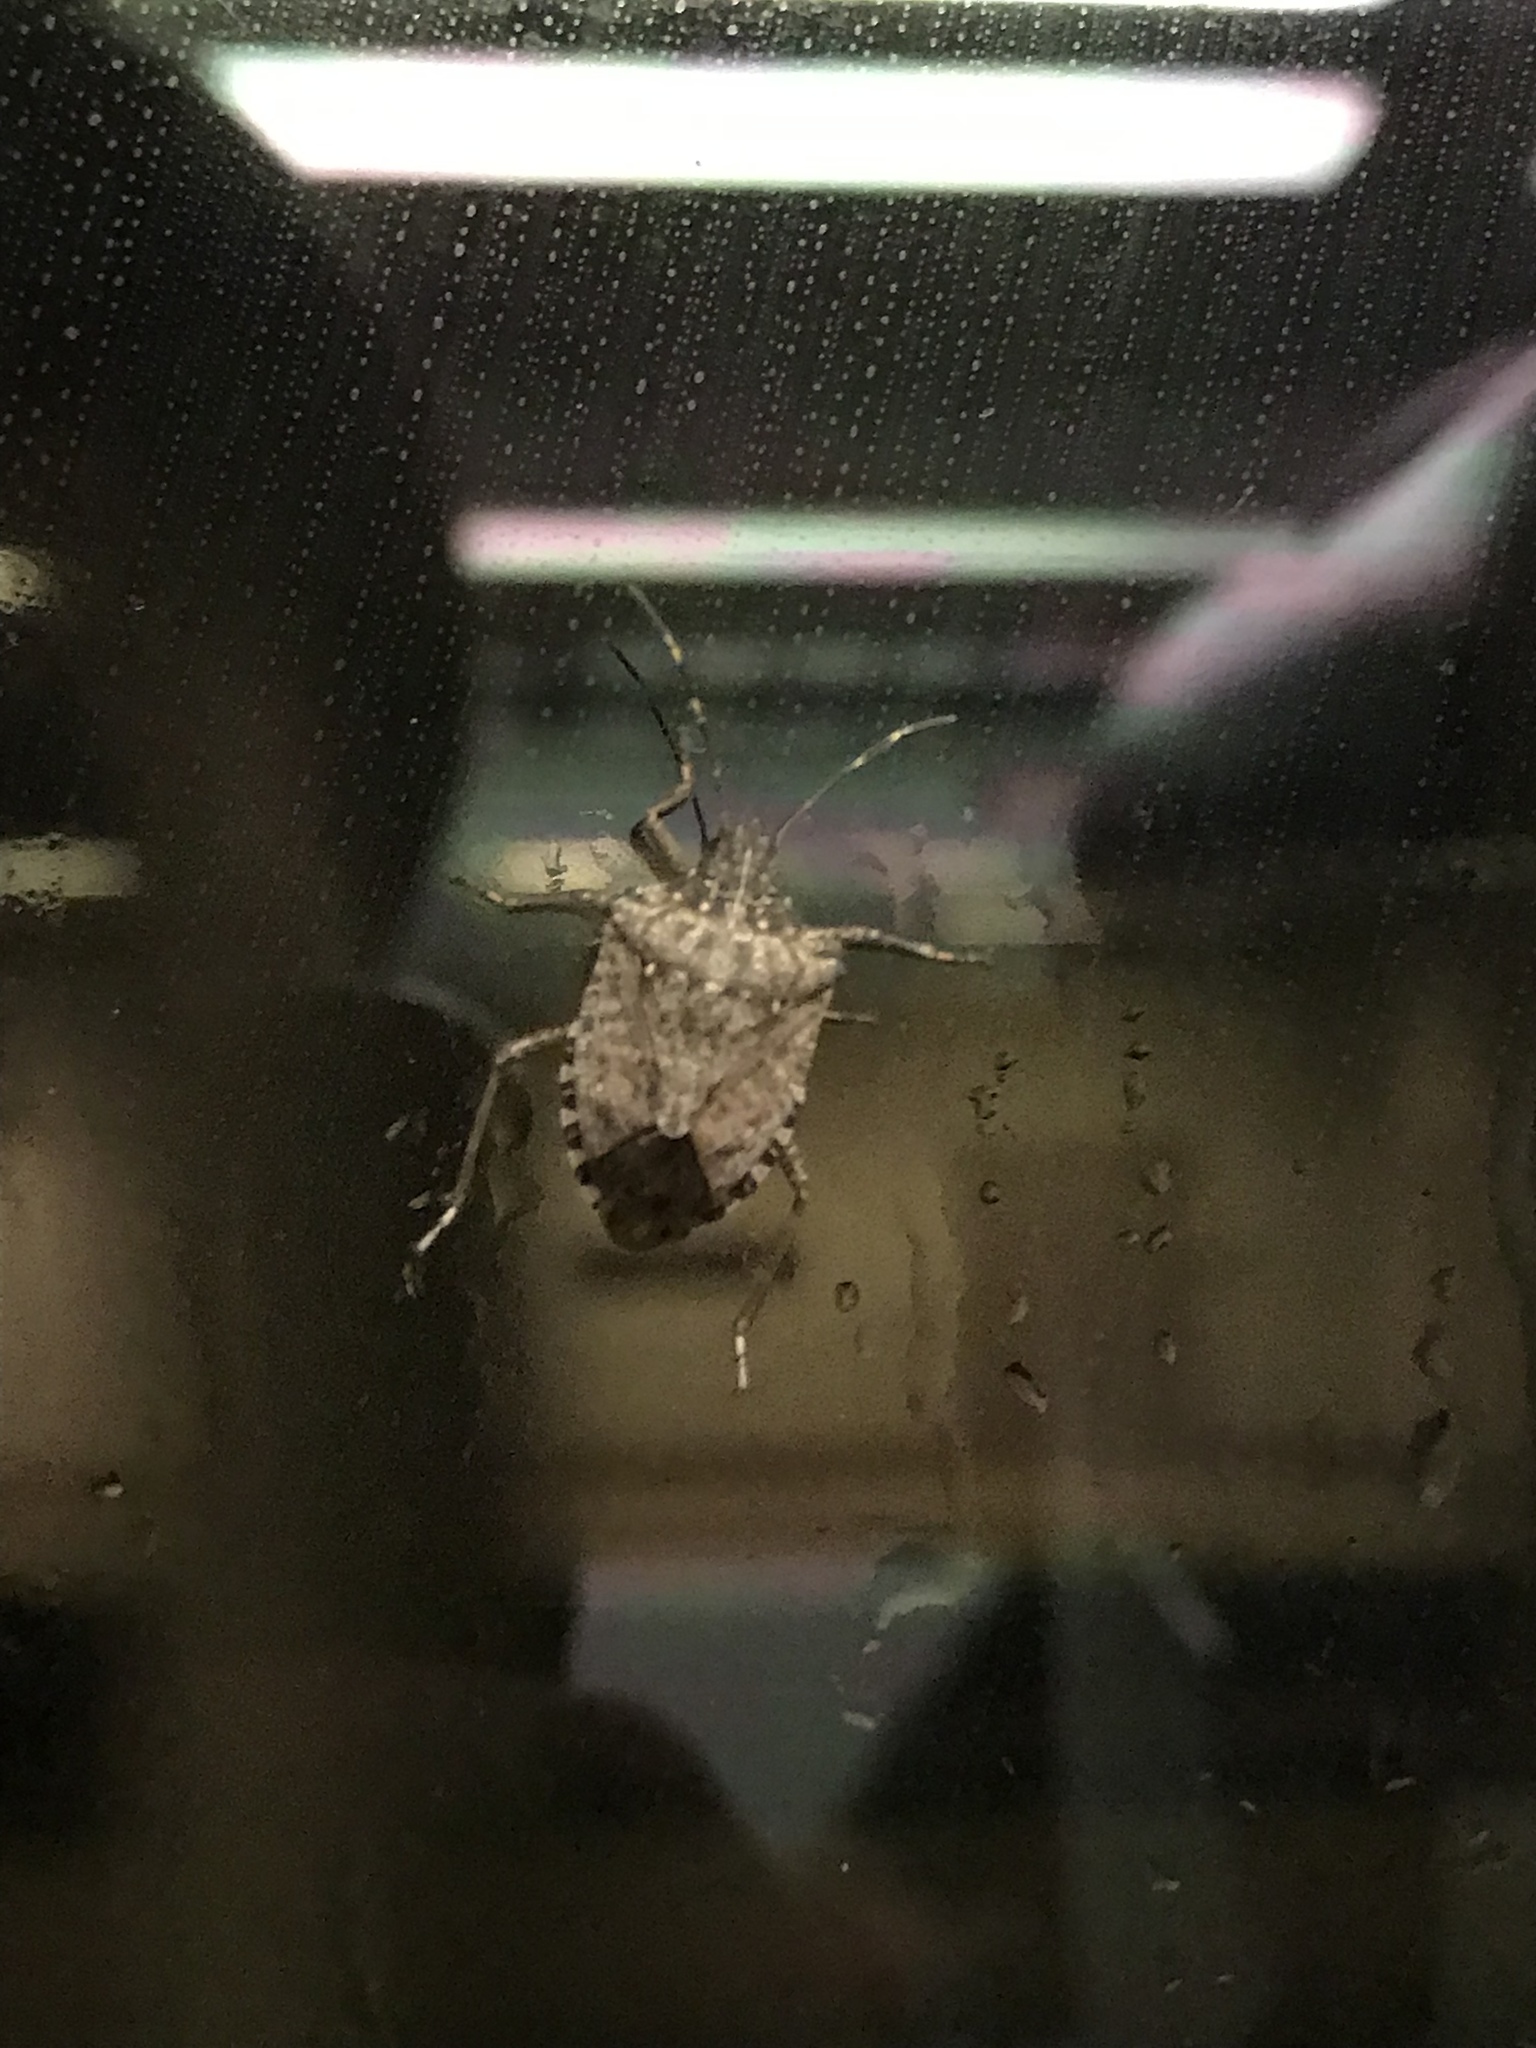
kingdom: Animalia
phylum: Arthropoda
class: Insecta
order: Hemiptera
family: Pentatomidae
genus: Halyomorpha
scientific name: Halyomorpha halys
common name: Brown marmorated stink bug
